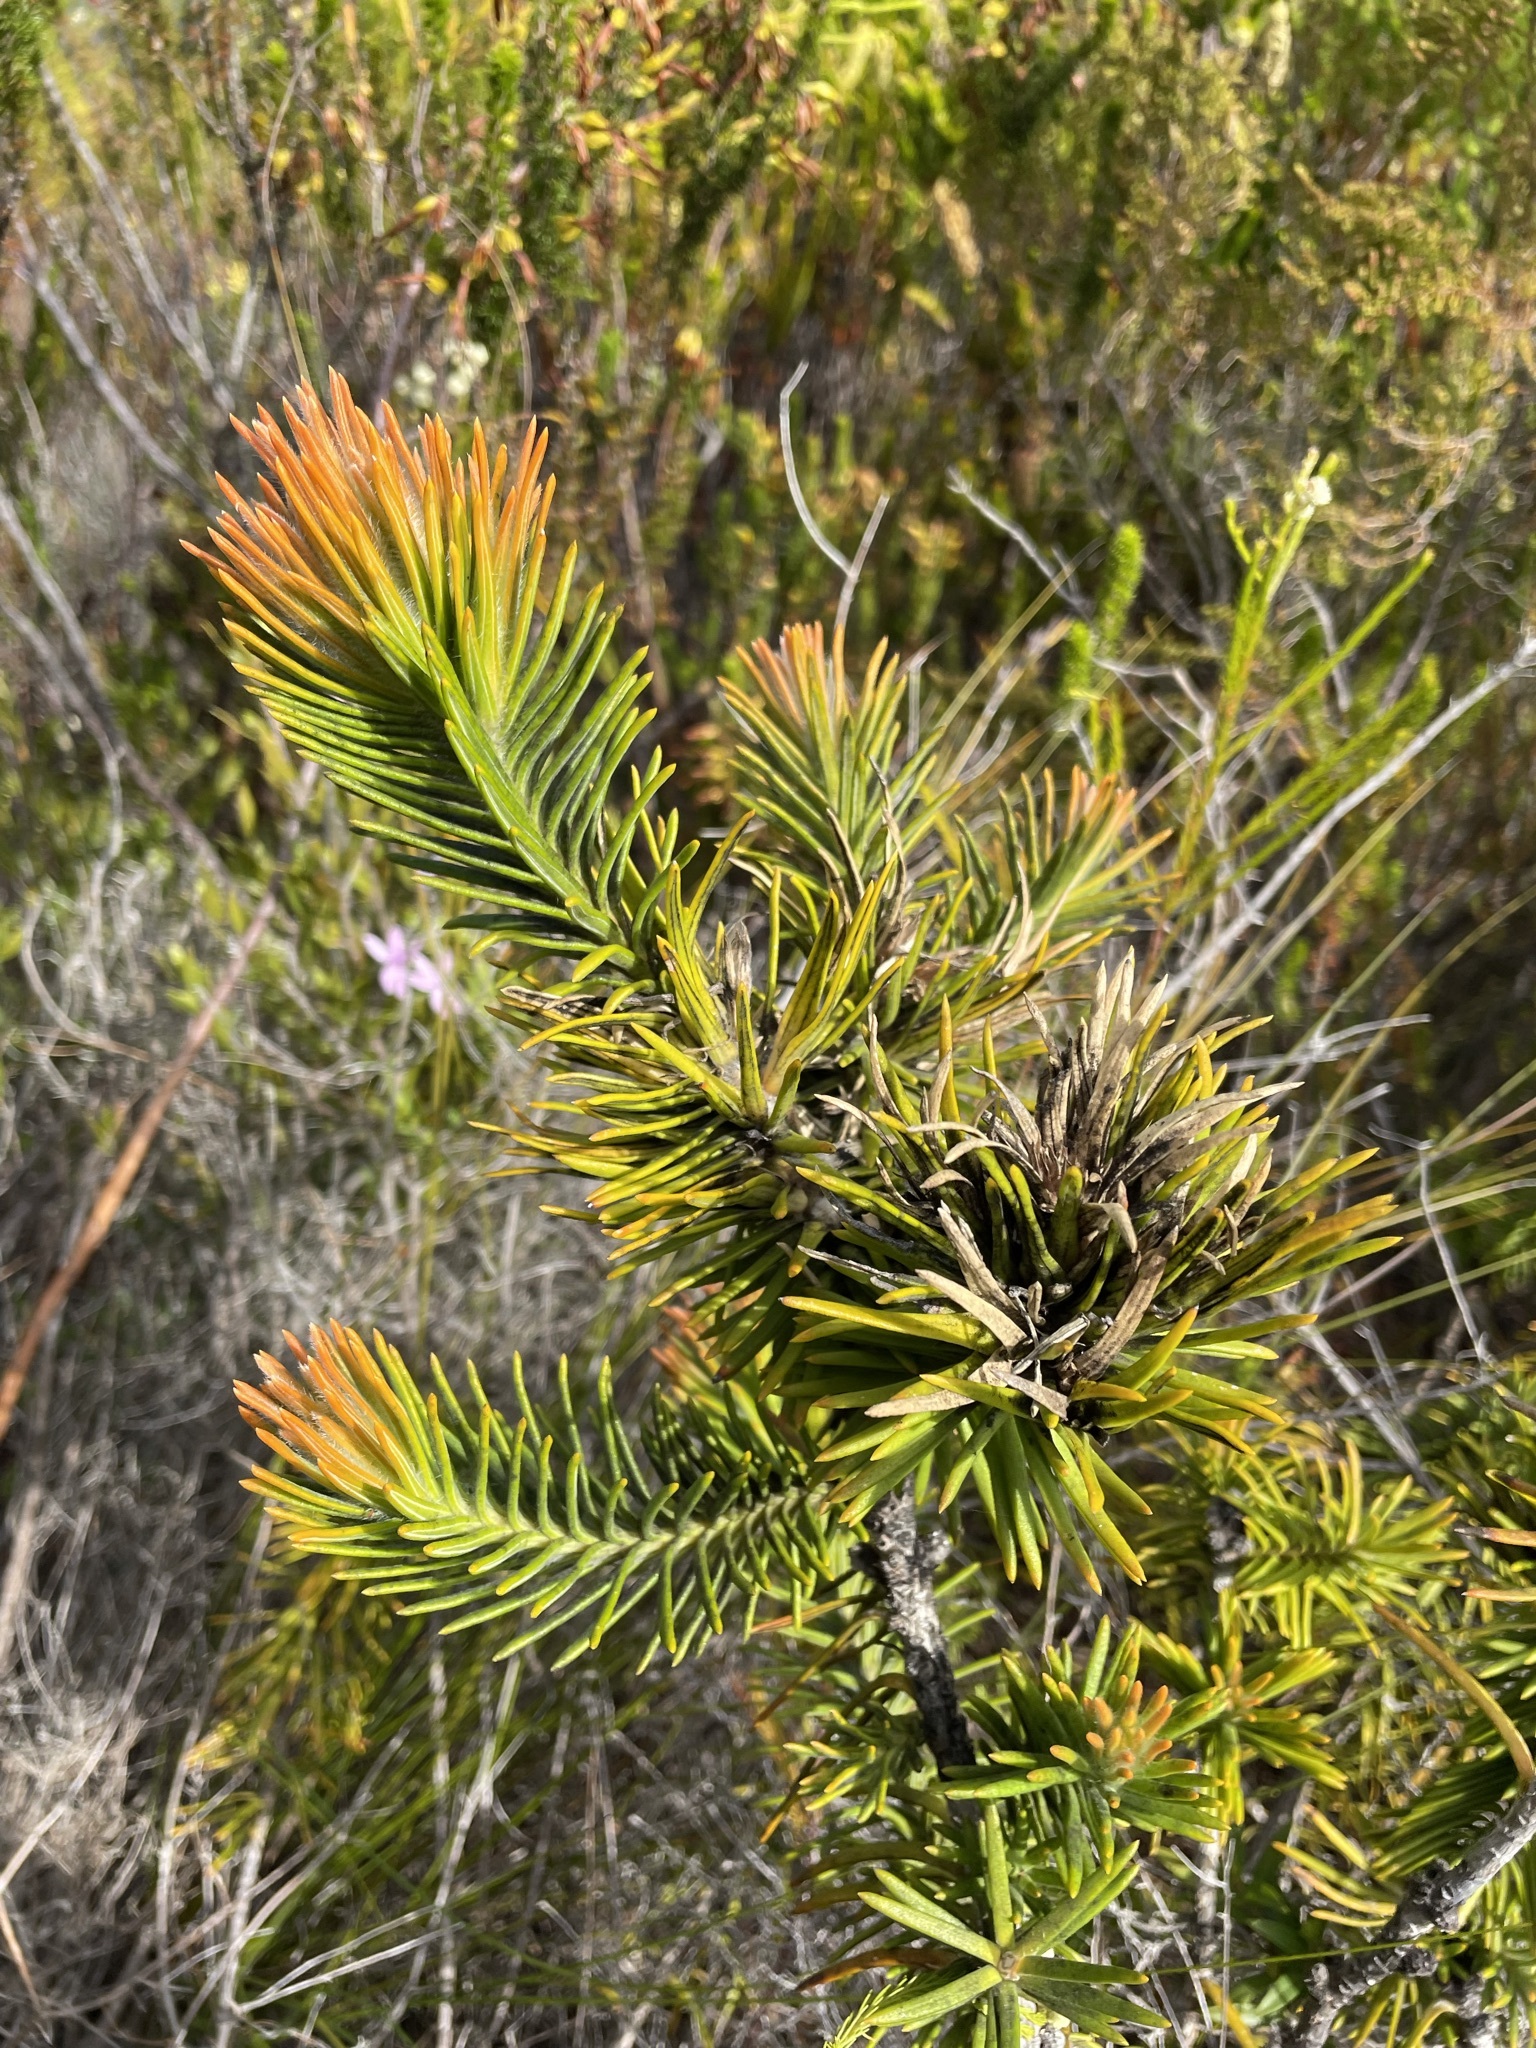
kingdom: Plantae
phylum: Tracheophyta
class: Magnoliopsida
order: Lamiales
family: Stilbaceae
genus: Retzia
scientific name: Retzia capensis
